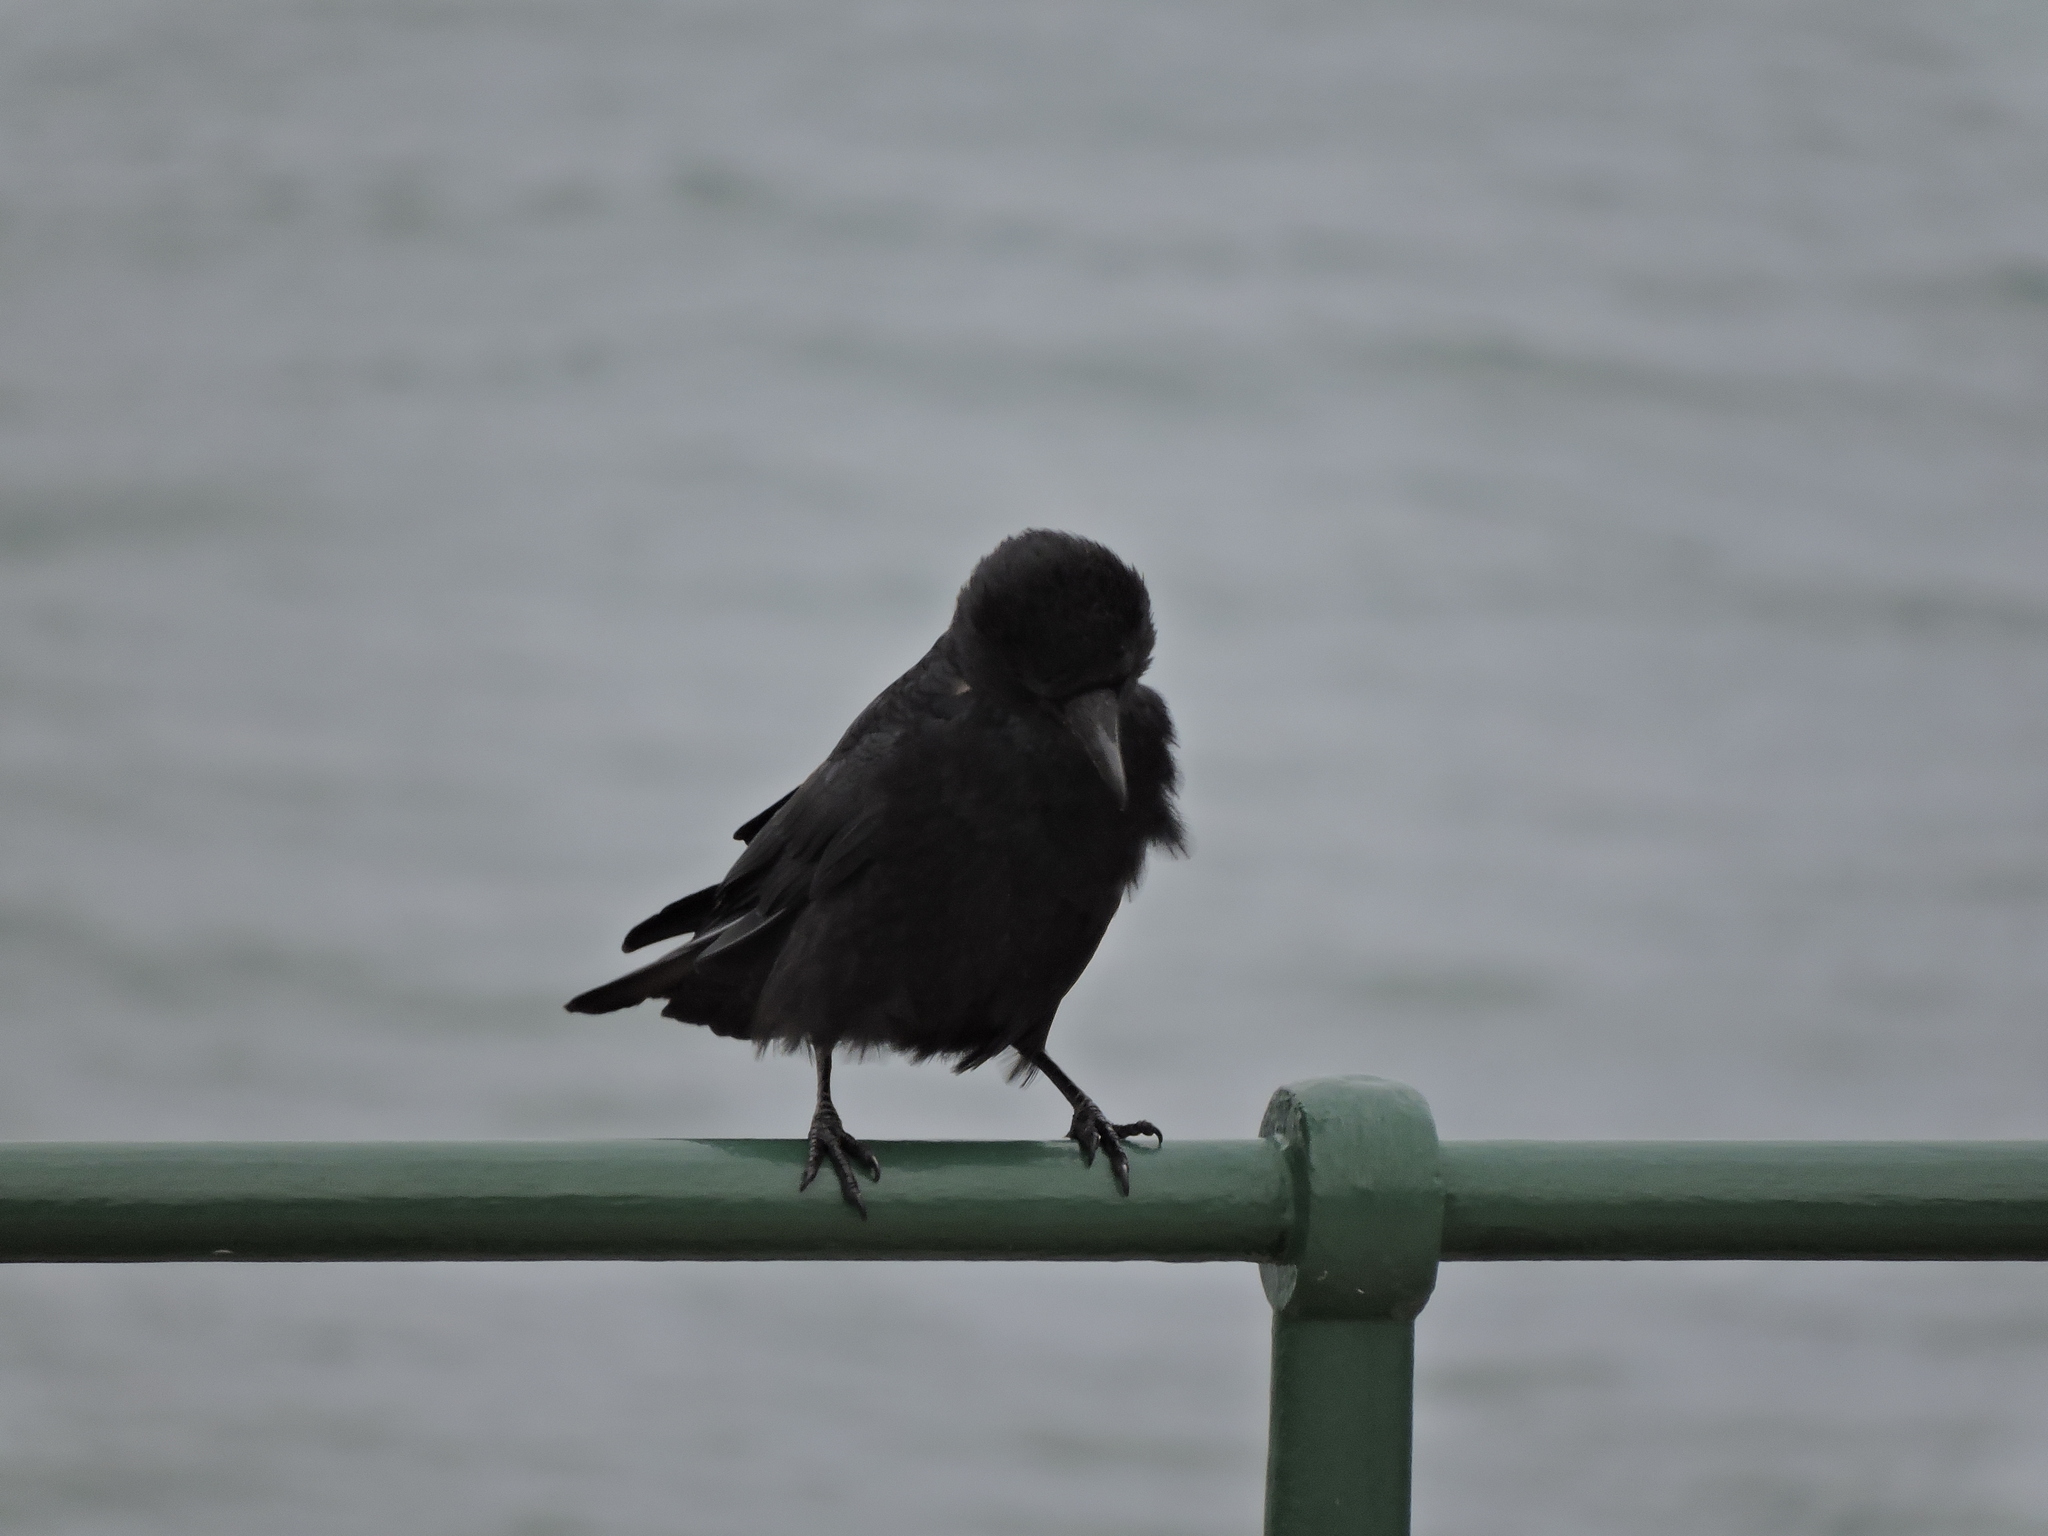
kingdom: Animalia
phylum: Chordata
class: Aves
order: Passeriformes
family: Corvidae
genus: Coloeus
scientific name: Coloeus monedula
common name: Western jackdaw
